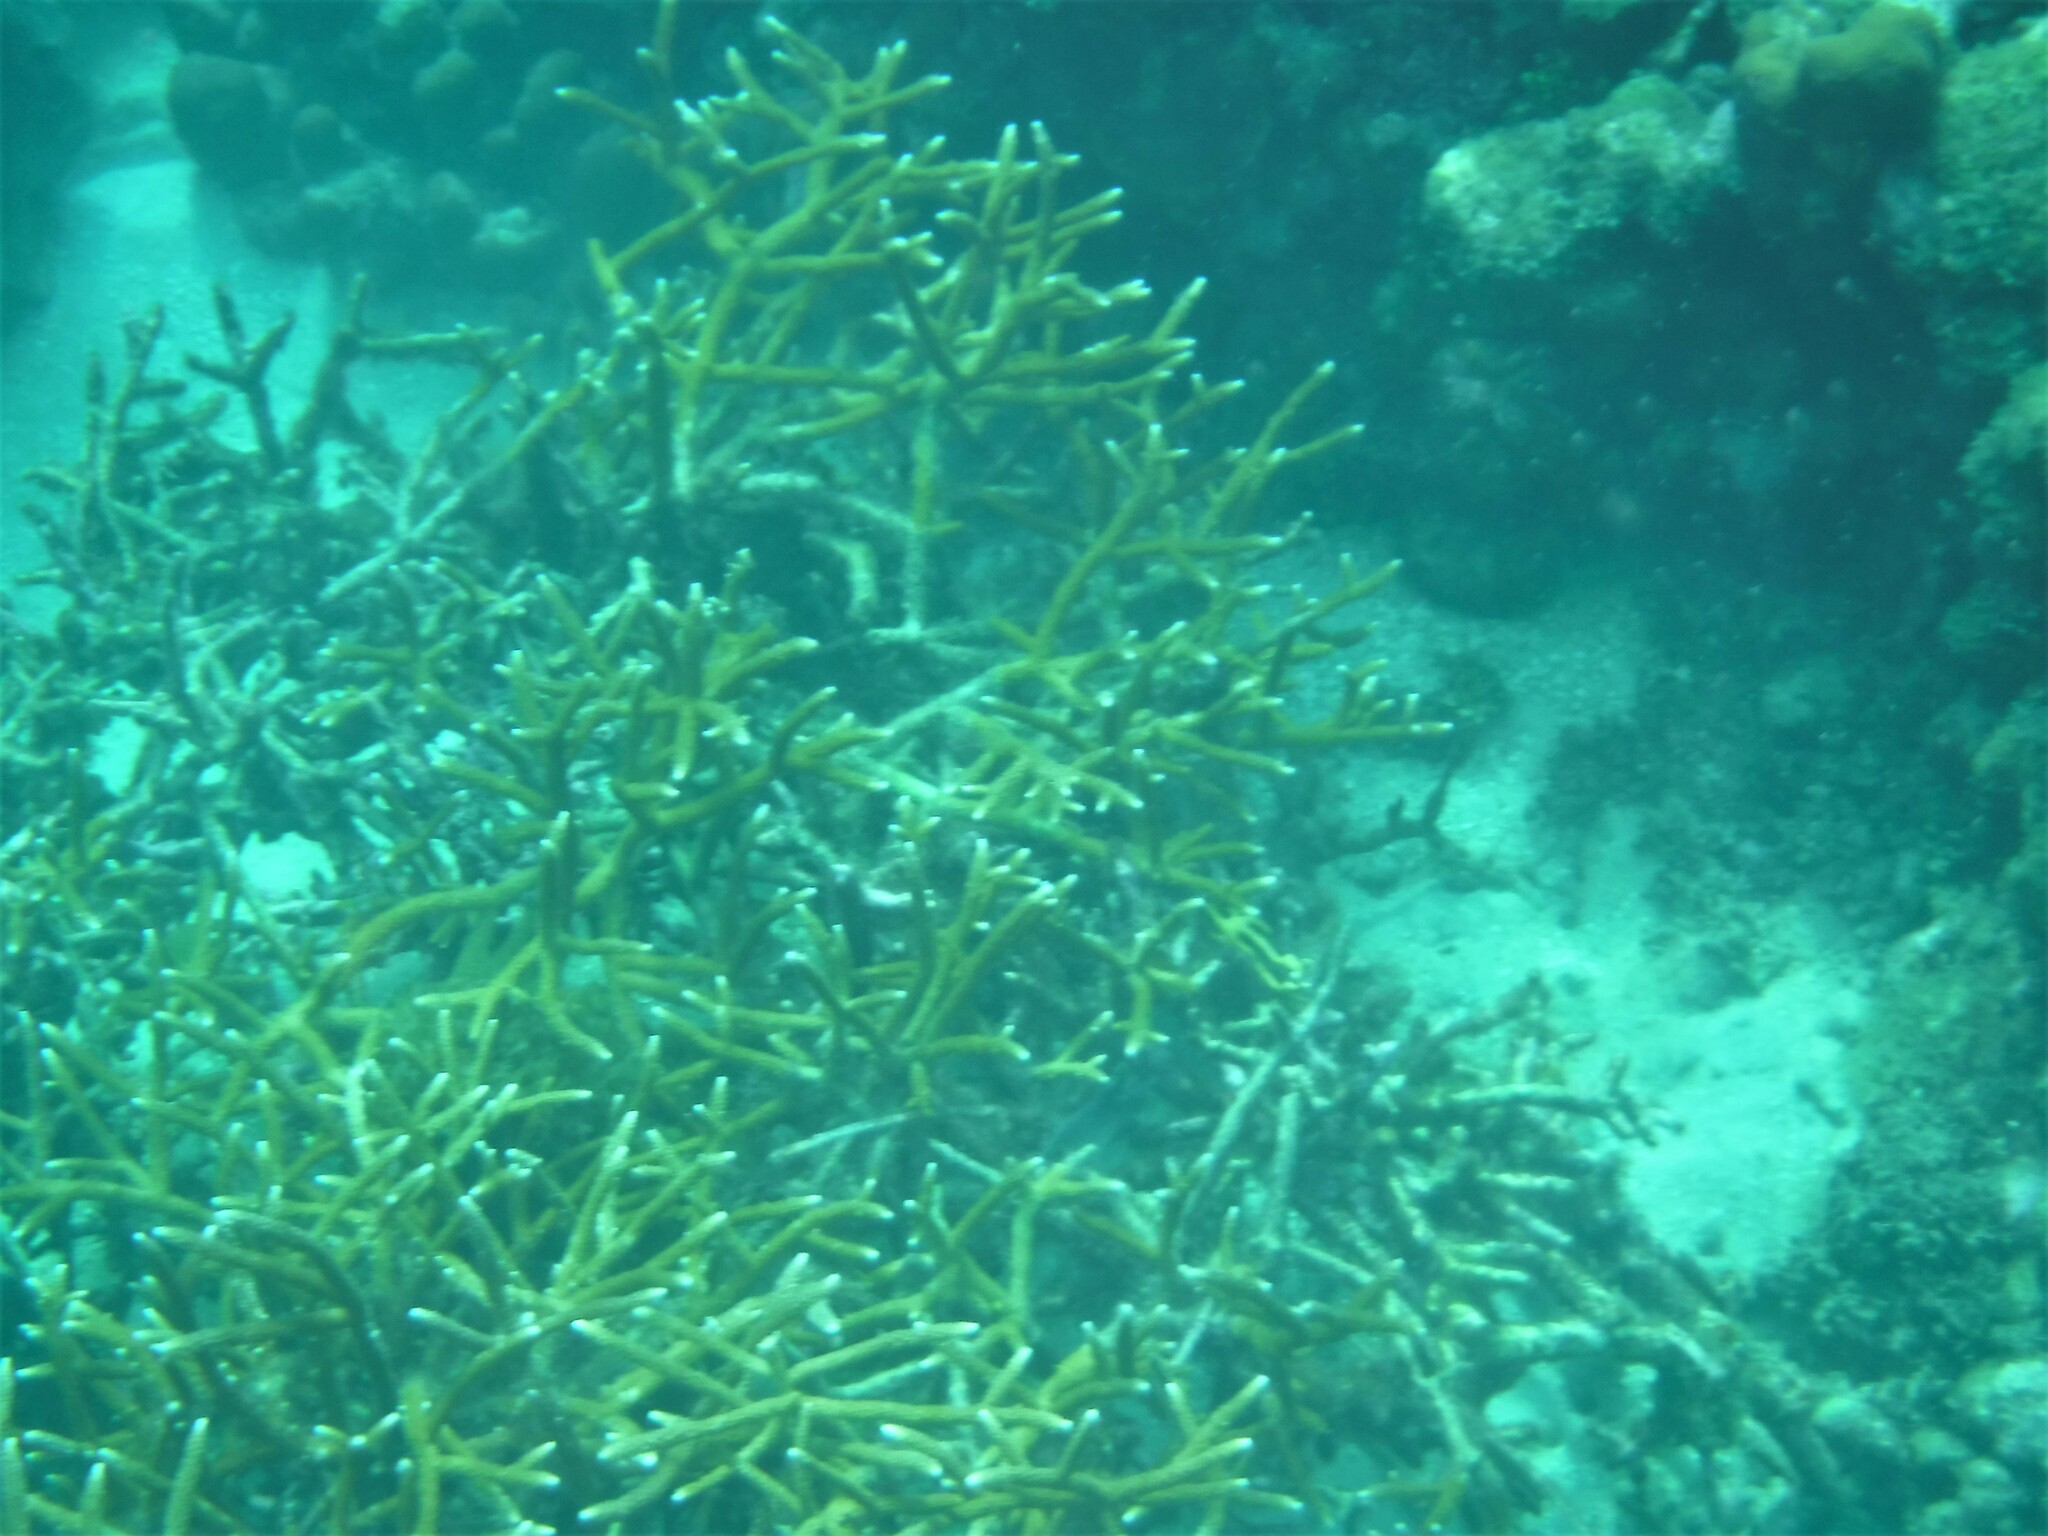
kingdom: Animalia
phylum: Cnidaria
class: Anthozoa
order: Scleractinia
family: Acroporidae
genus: Acropora
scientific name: Acropora cervicornis
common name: Staghorn coral
